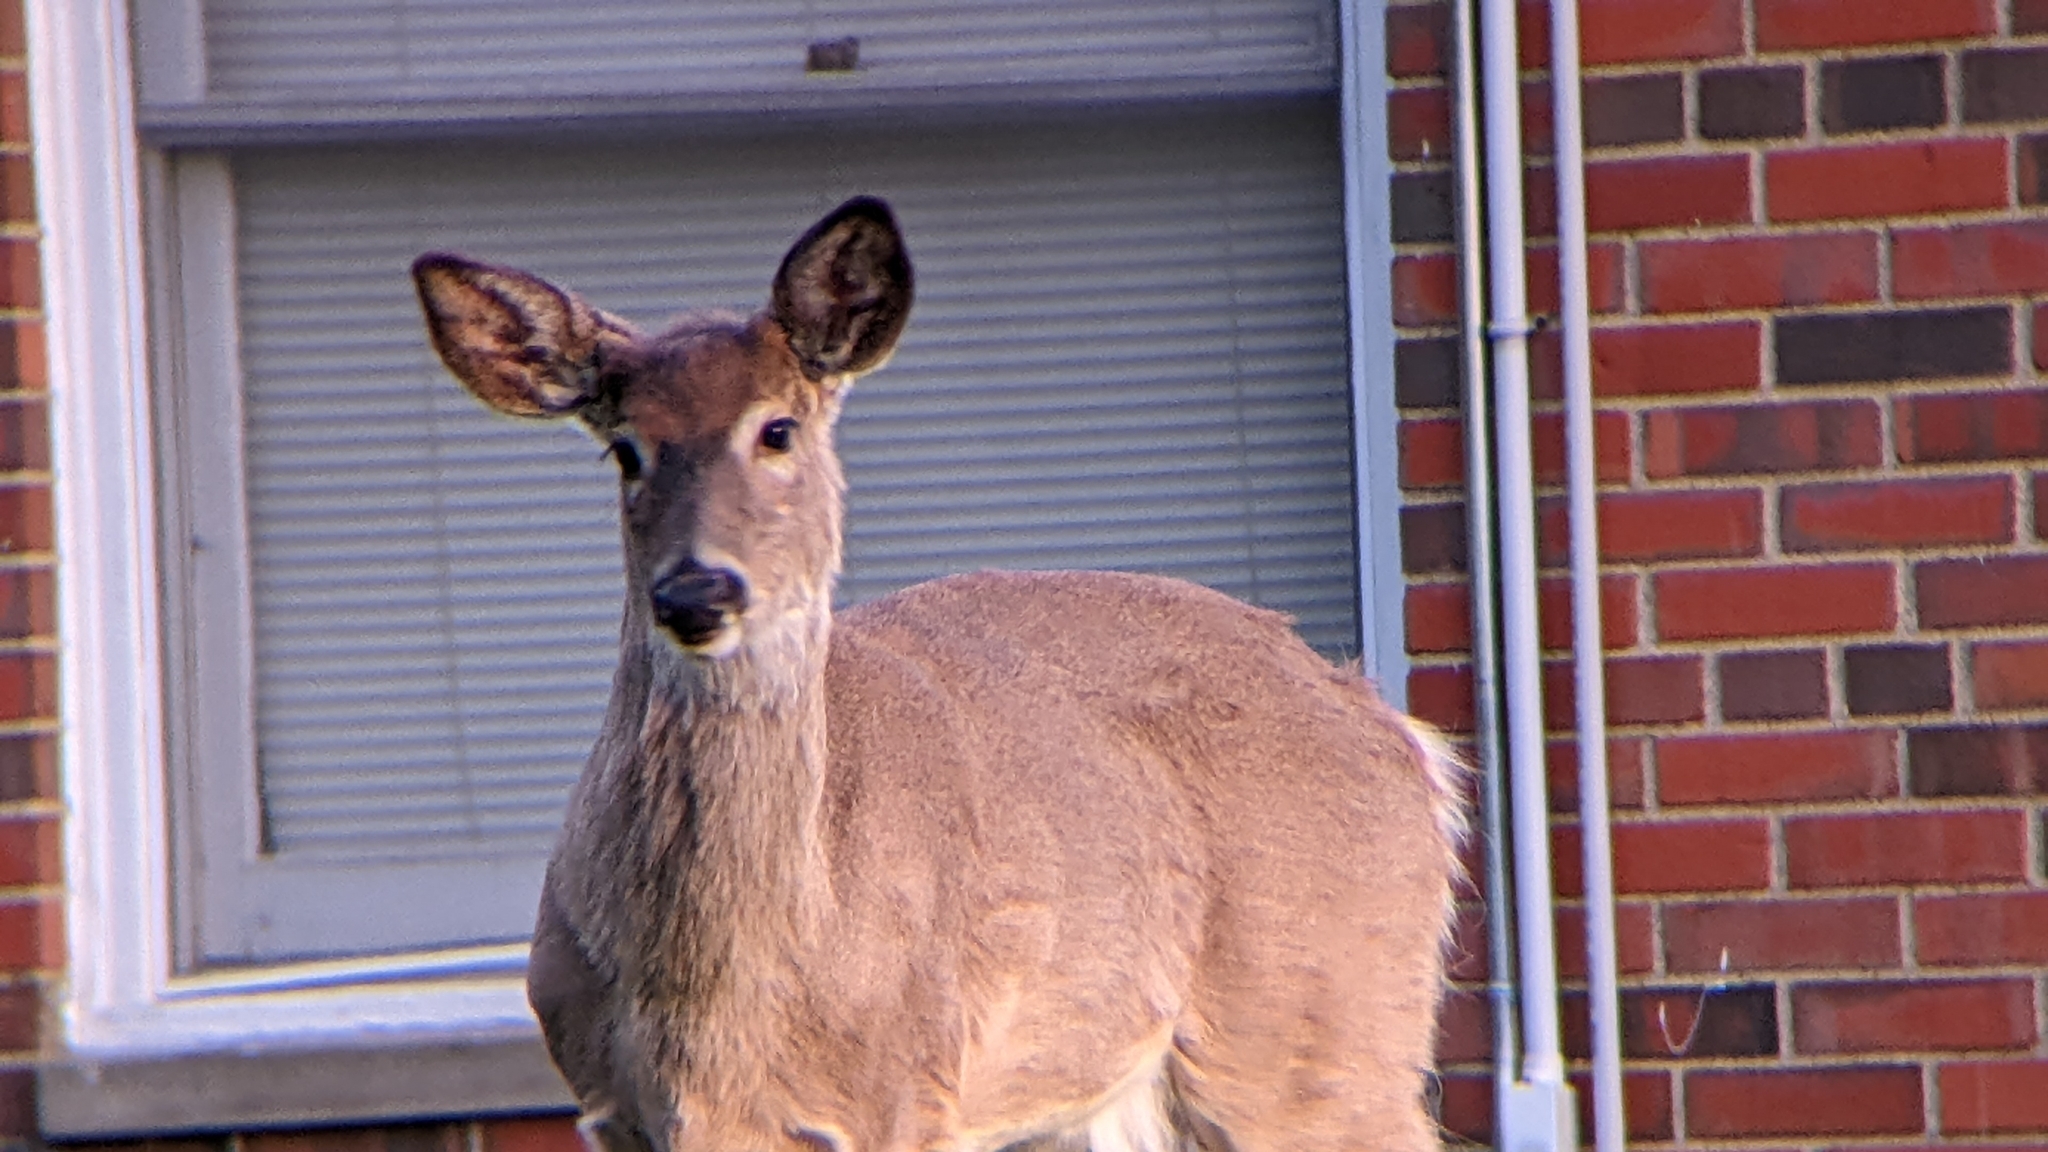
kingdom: Animalia
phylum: Chordata
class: Mammalia
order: Artiodactyla
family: Cervidae
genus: Odocoileus
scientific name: Odocoileus virginianus
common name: White-tailed deer
